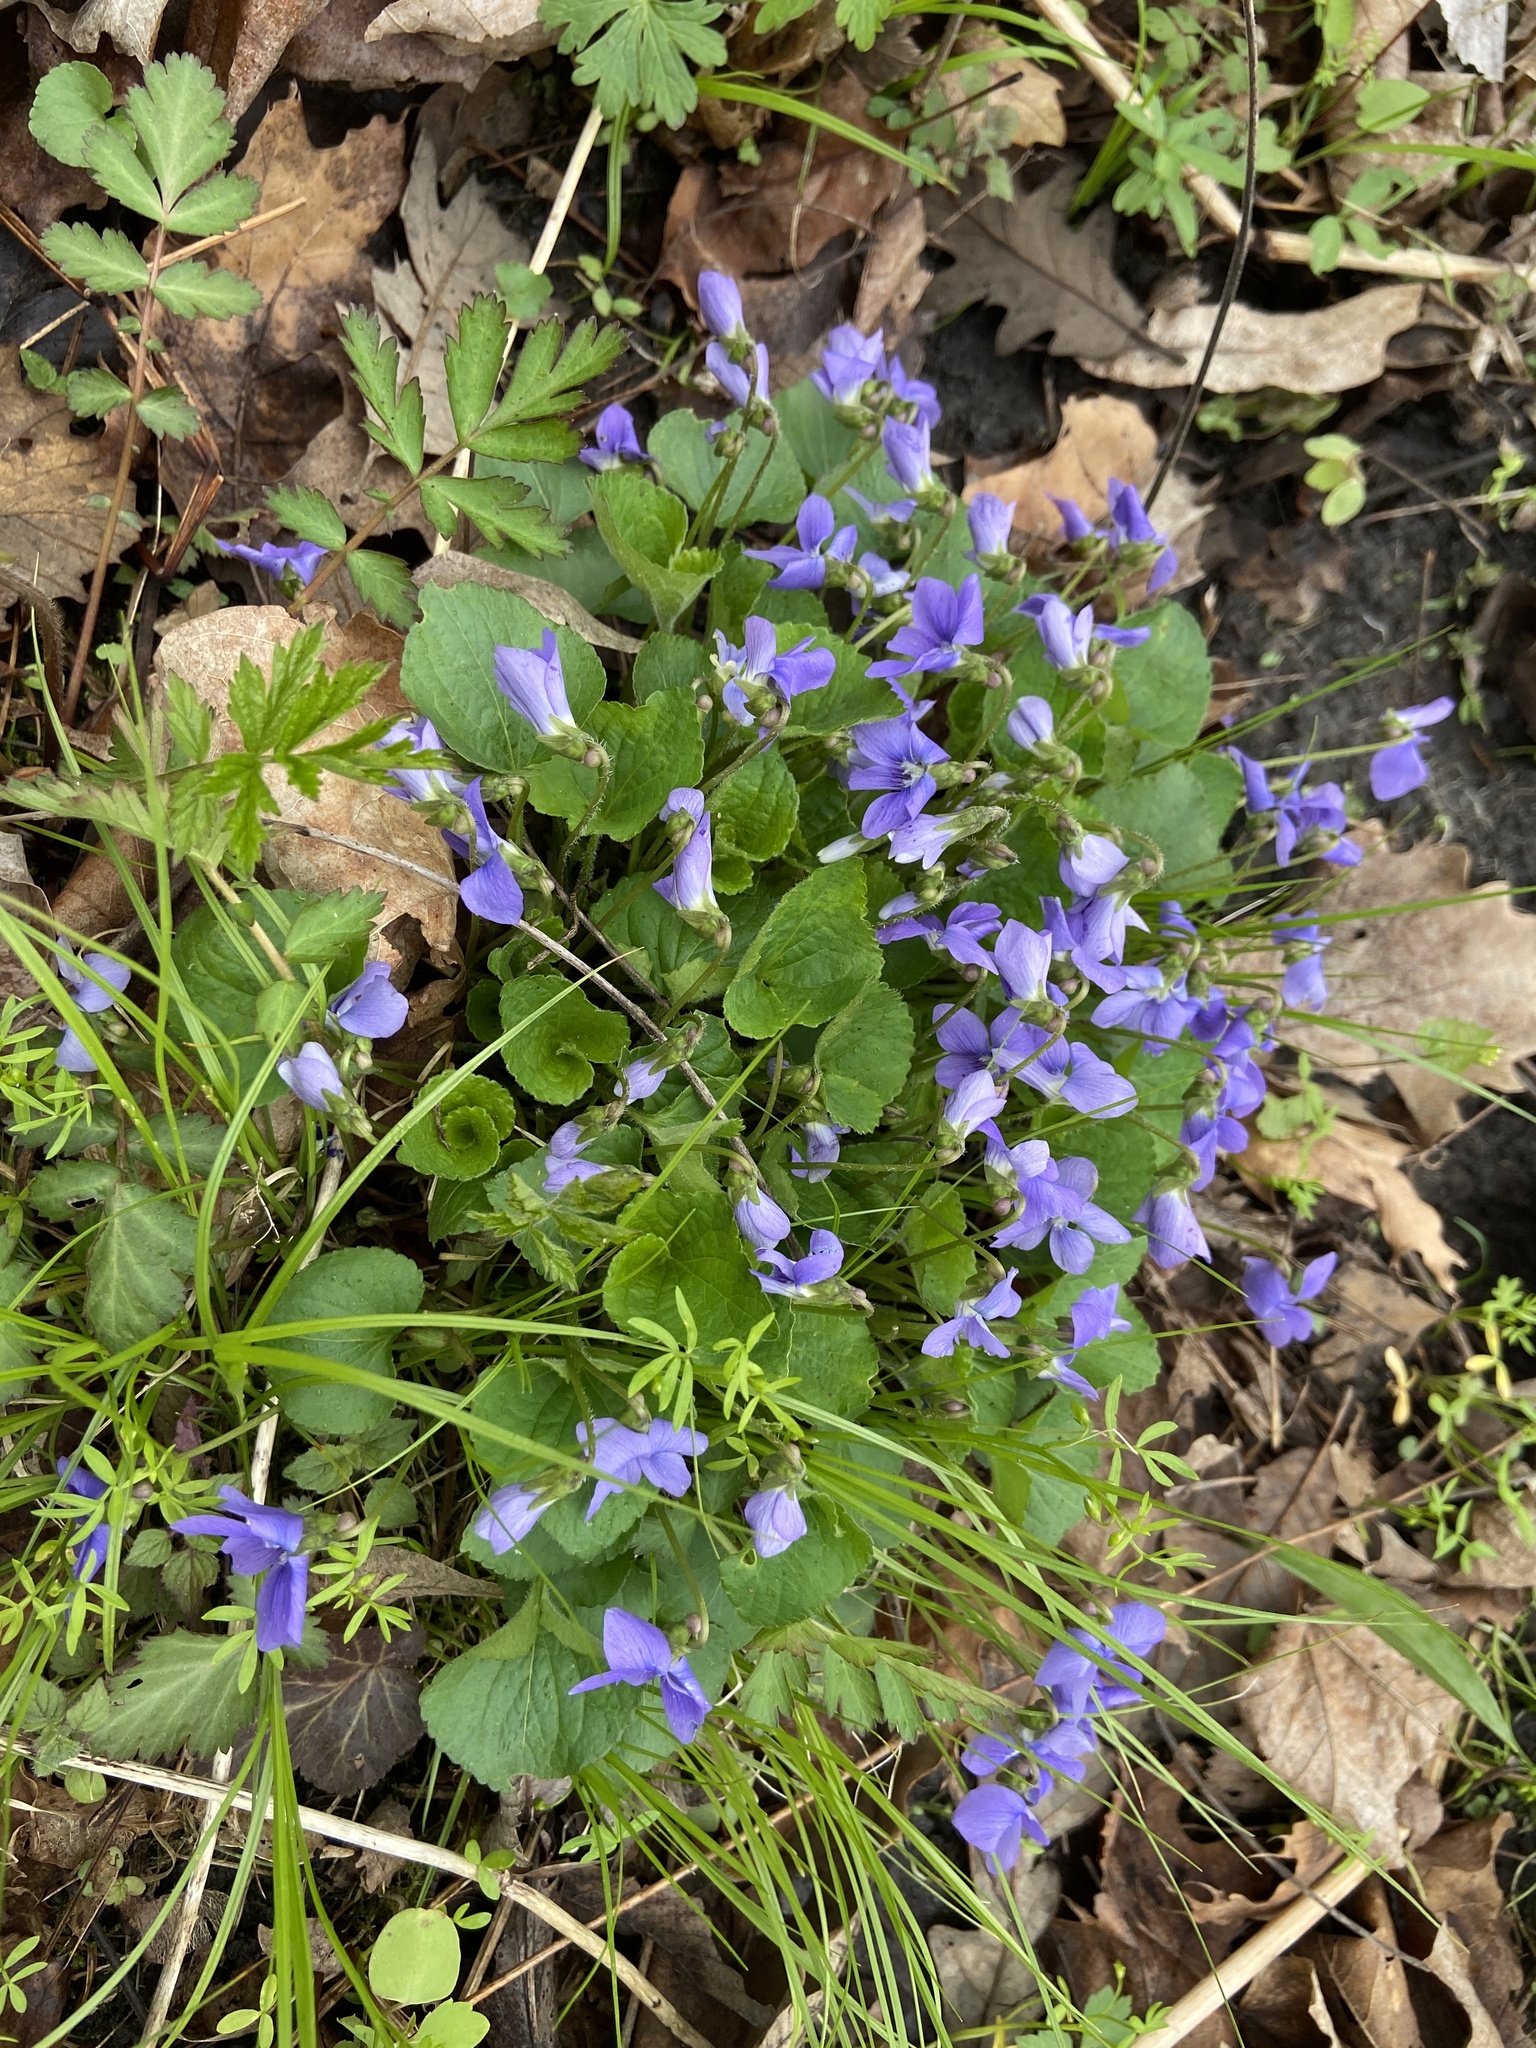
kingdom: Plantae
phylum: Tracheophyta
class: Magnoliopsida
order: Malpighiales
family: Violaceae
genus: Viola
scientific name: Viola sororia
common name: Dooryard violet
